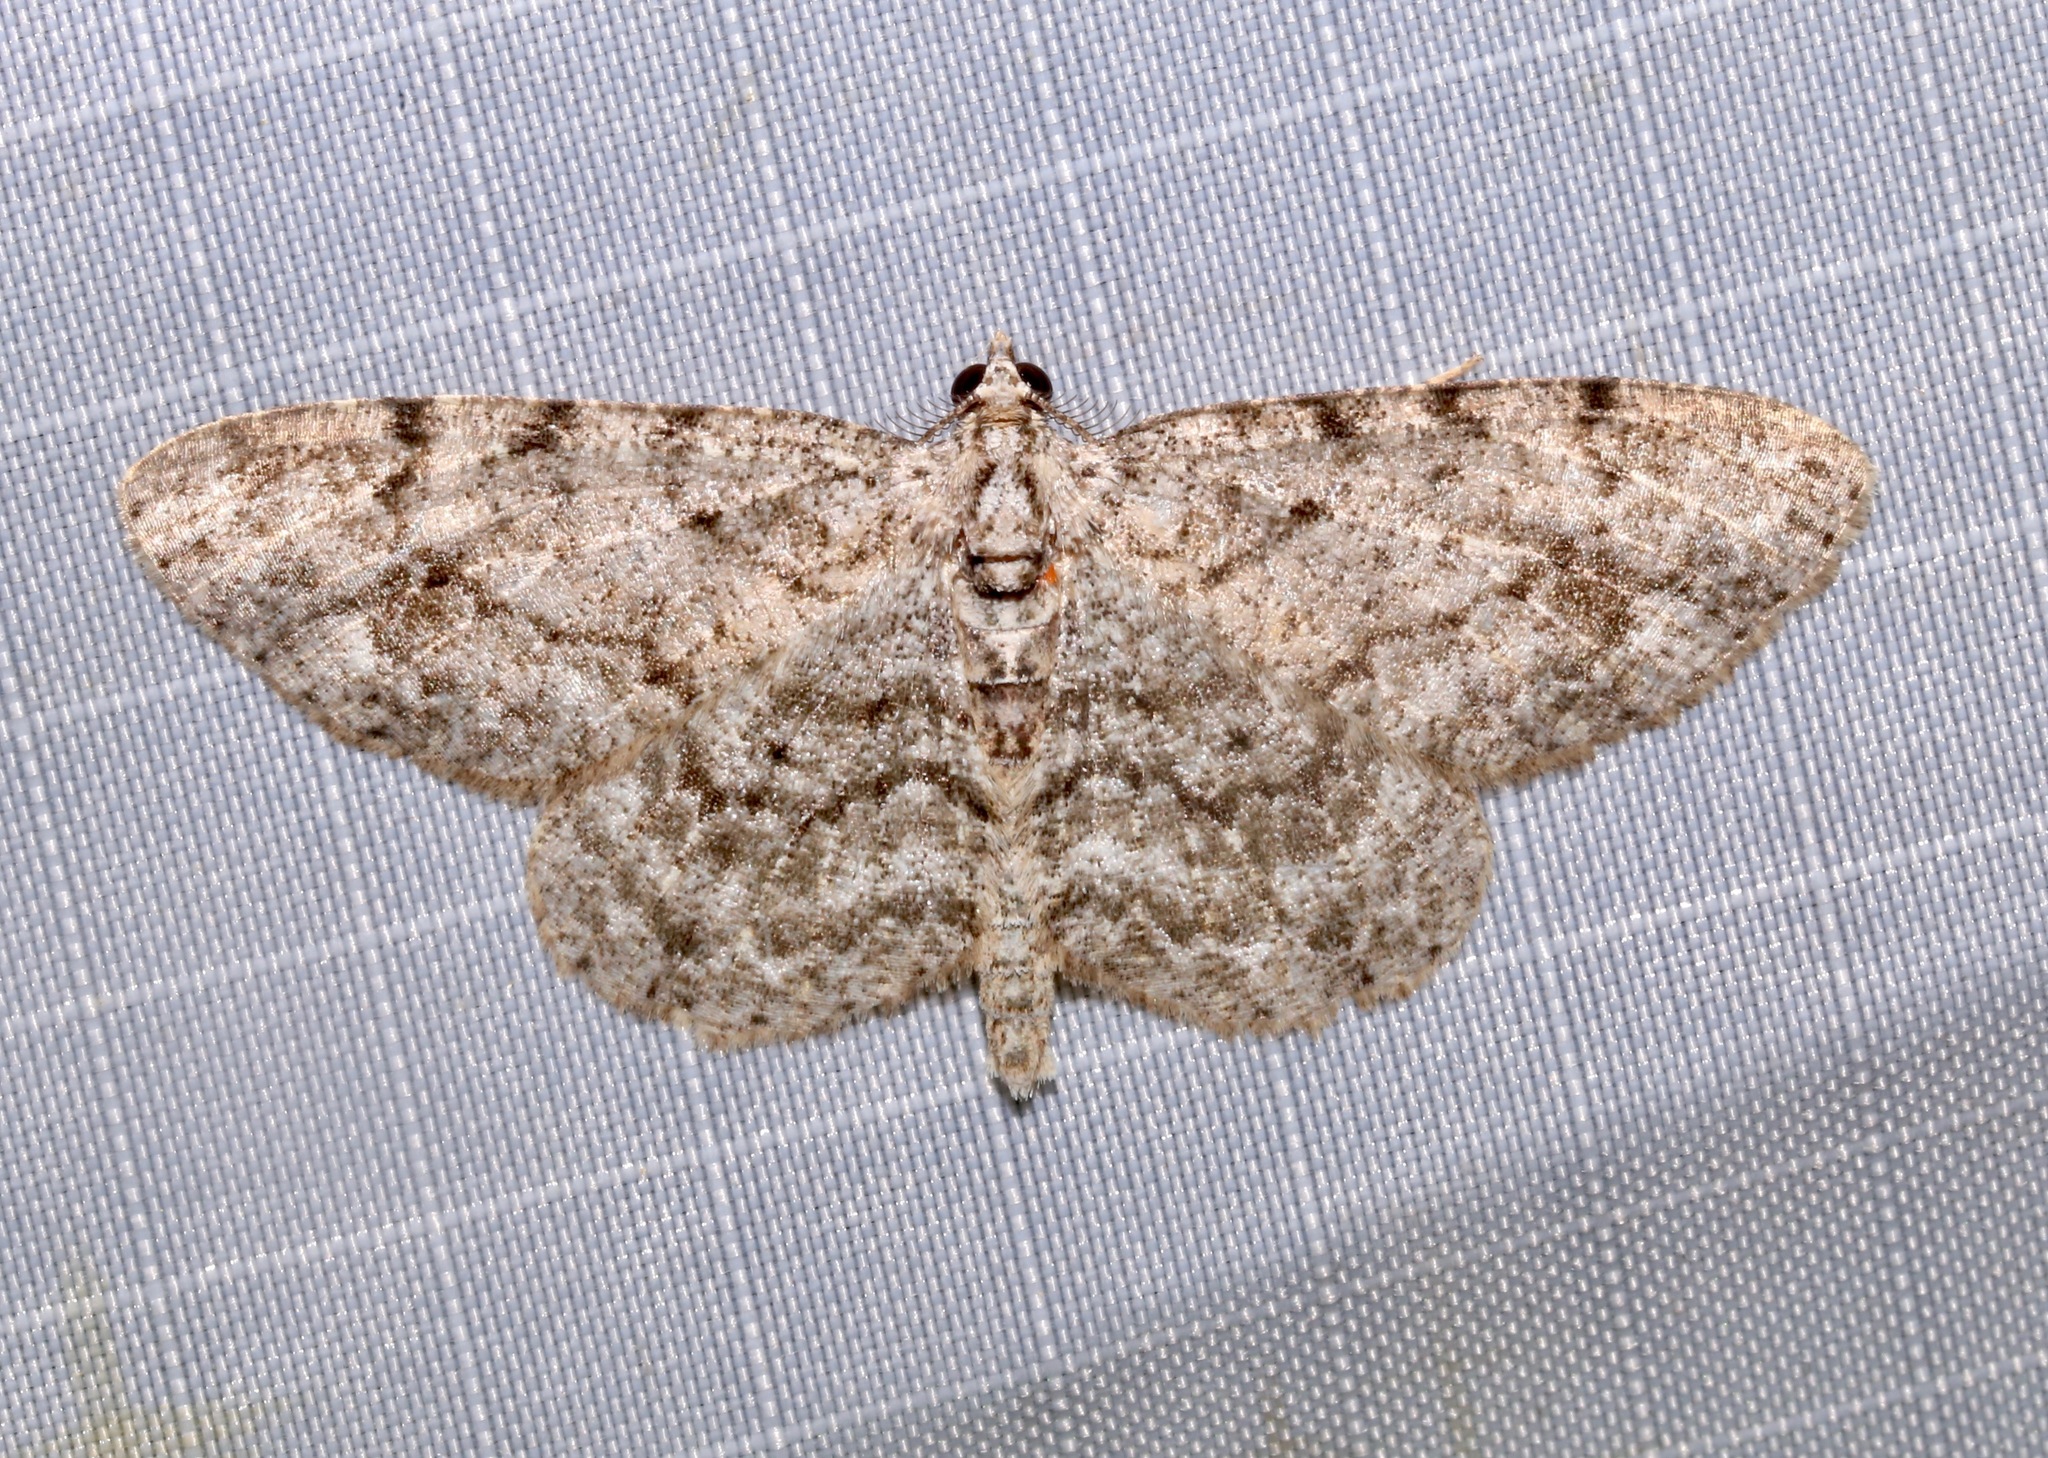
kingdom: Animalia
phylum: Arthropoda
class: Insecta
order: Lepidoptera
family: Geometridae
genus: Protoboarmia
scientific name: Protoboarmia porcelaria
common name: Porcelain gray
